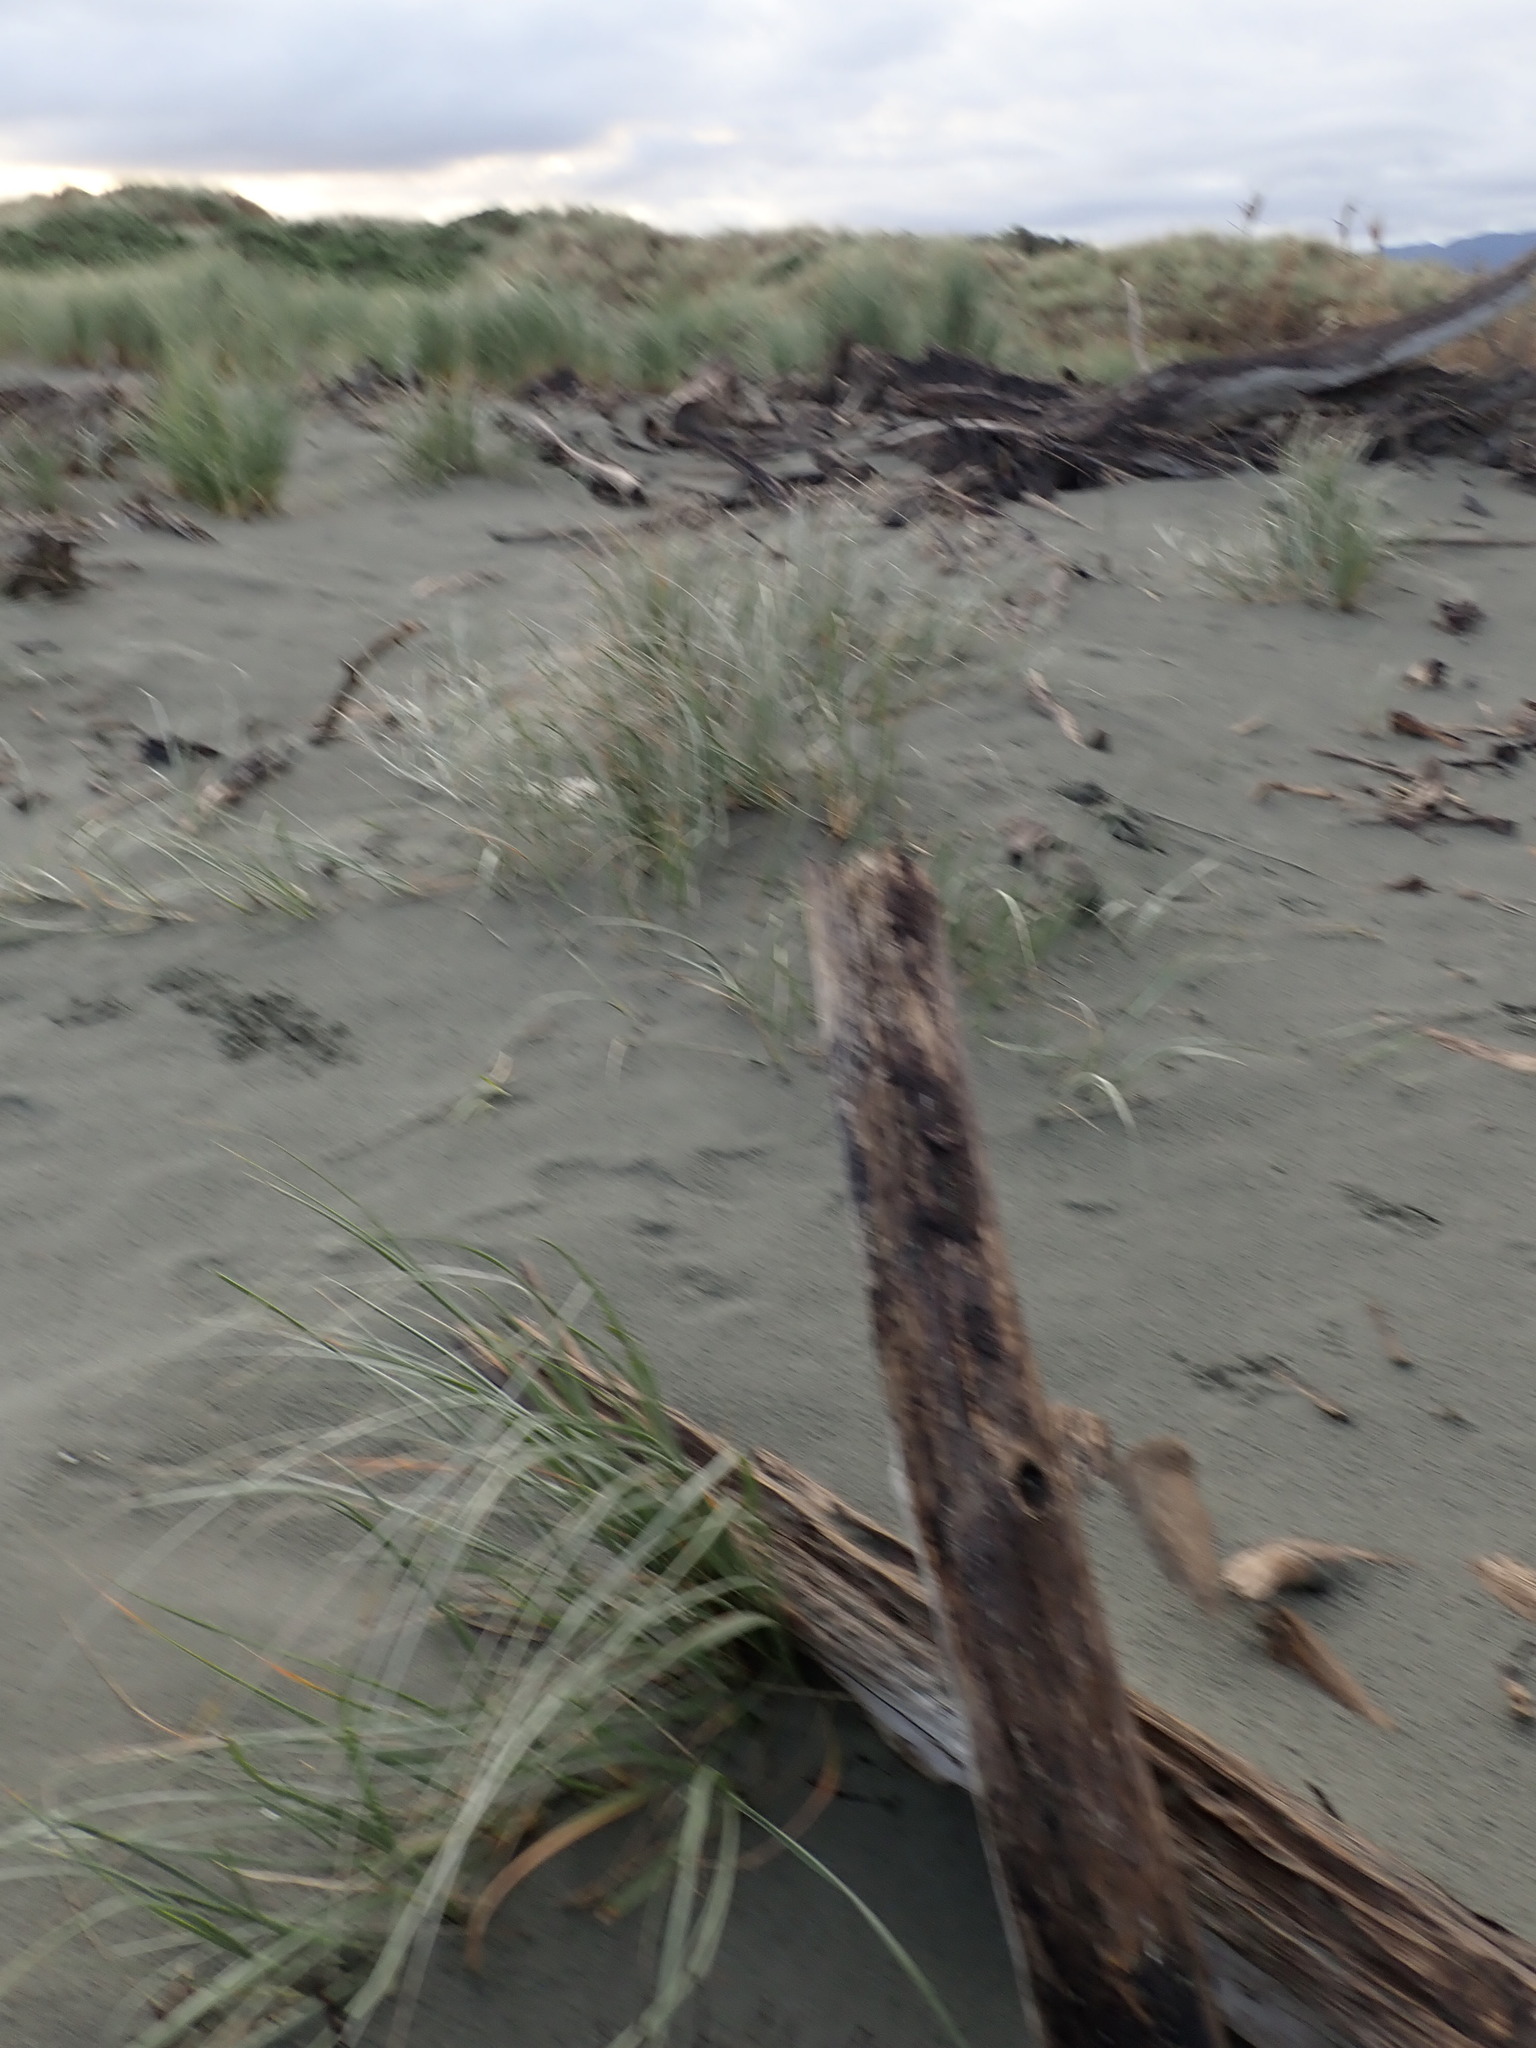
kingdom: Plantae
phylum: Tracheophyta
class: Liliopsida
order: Poales
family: Poaceae
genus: Spinifex
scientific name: Spinifex sericeus
